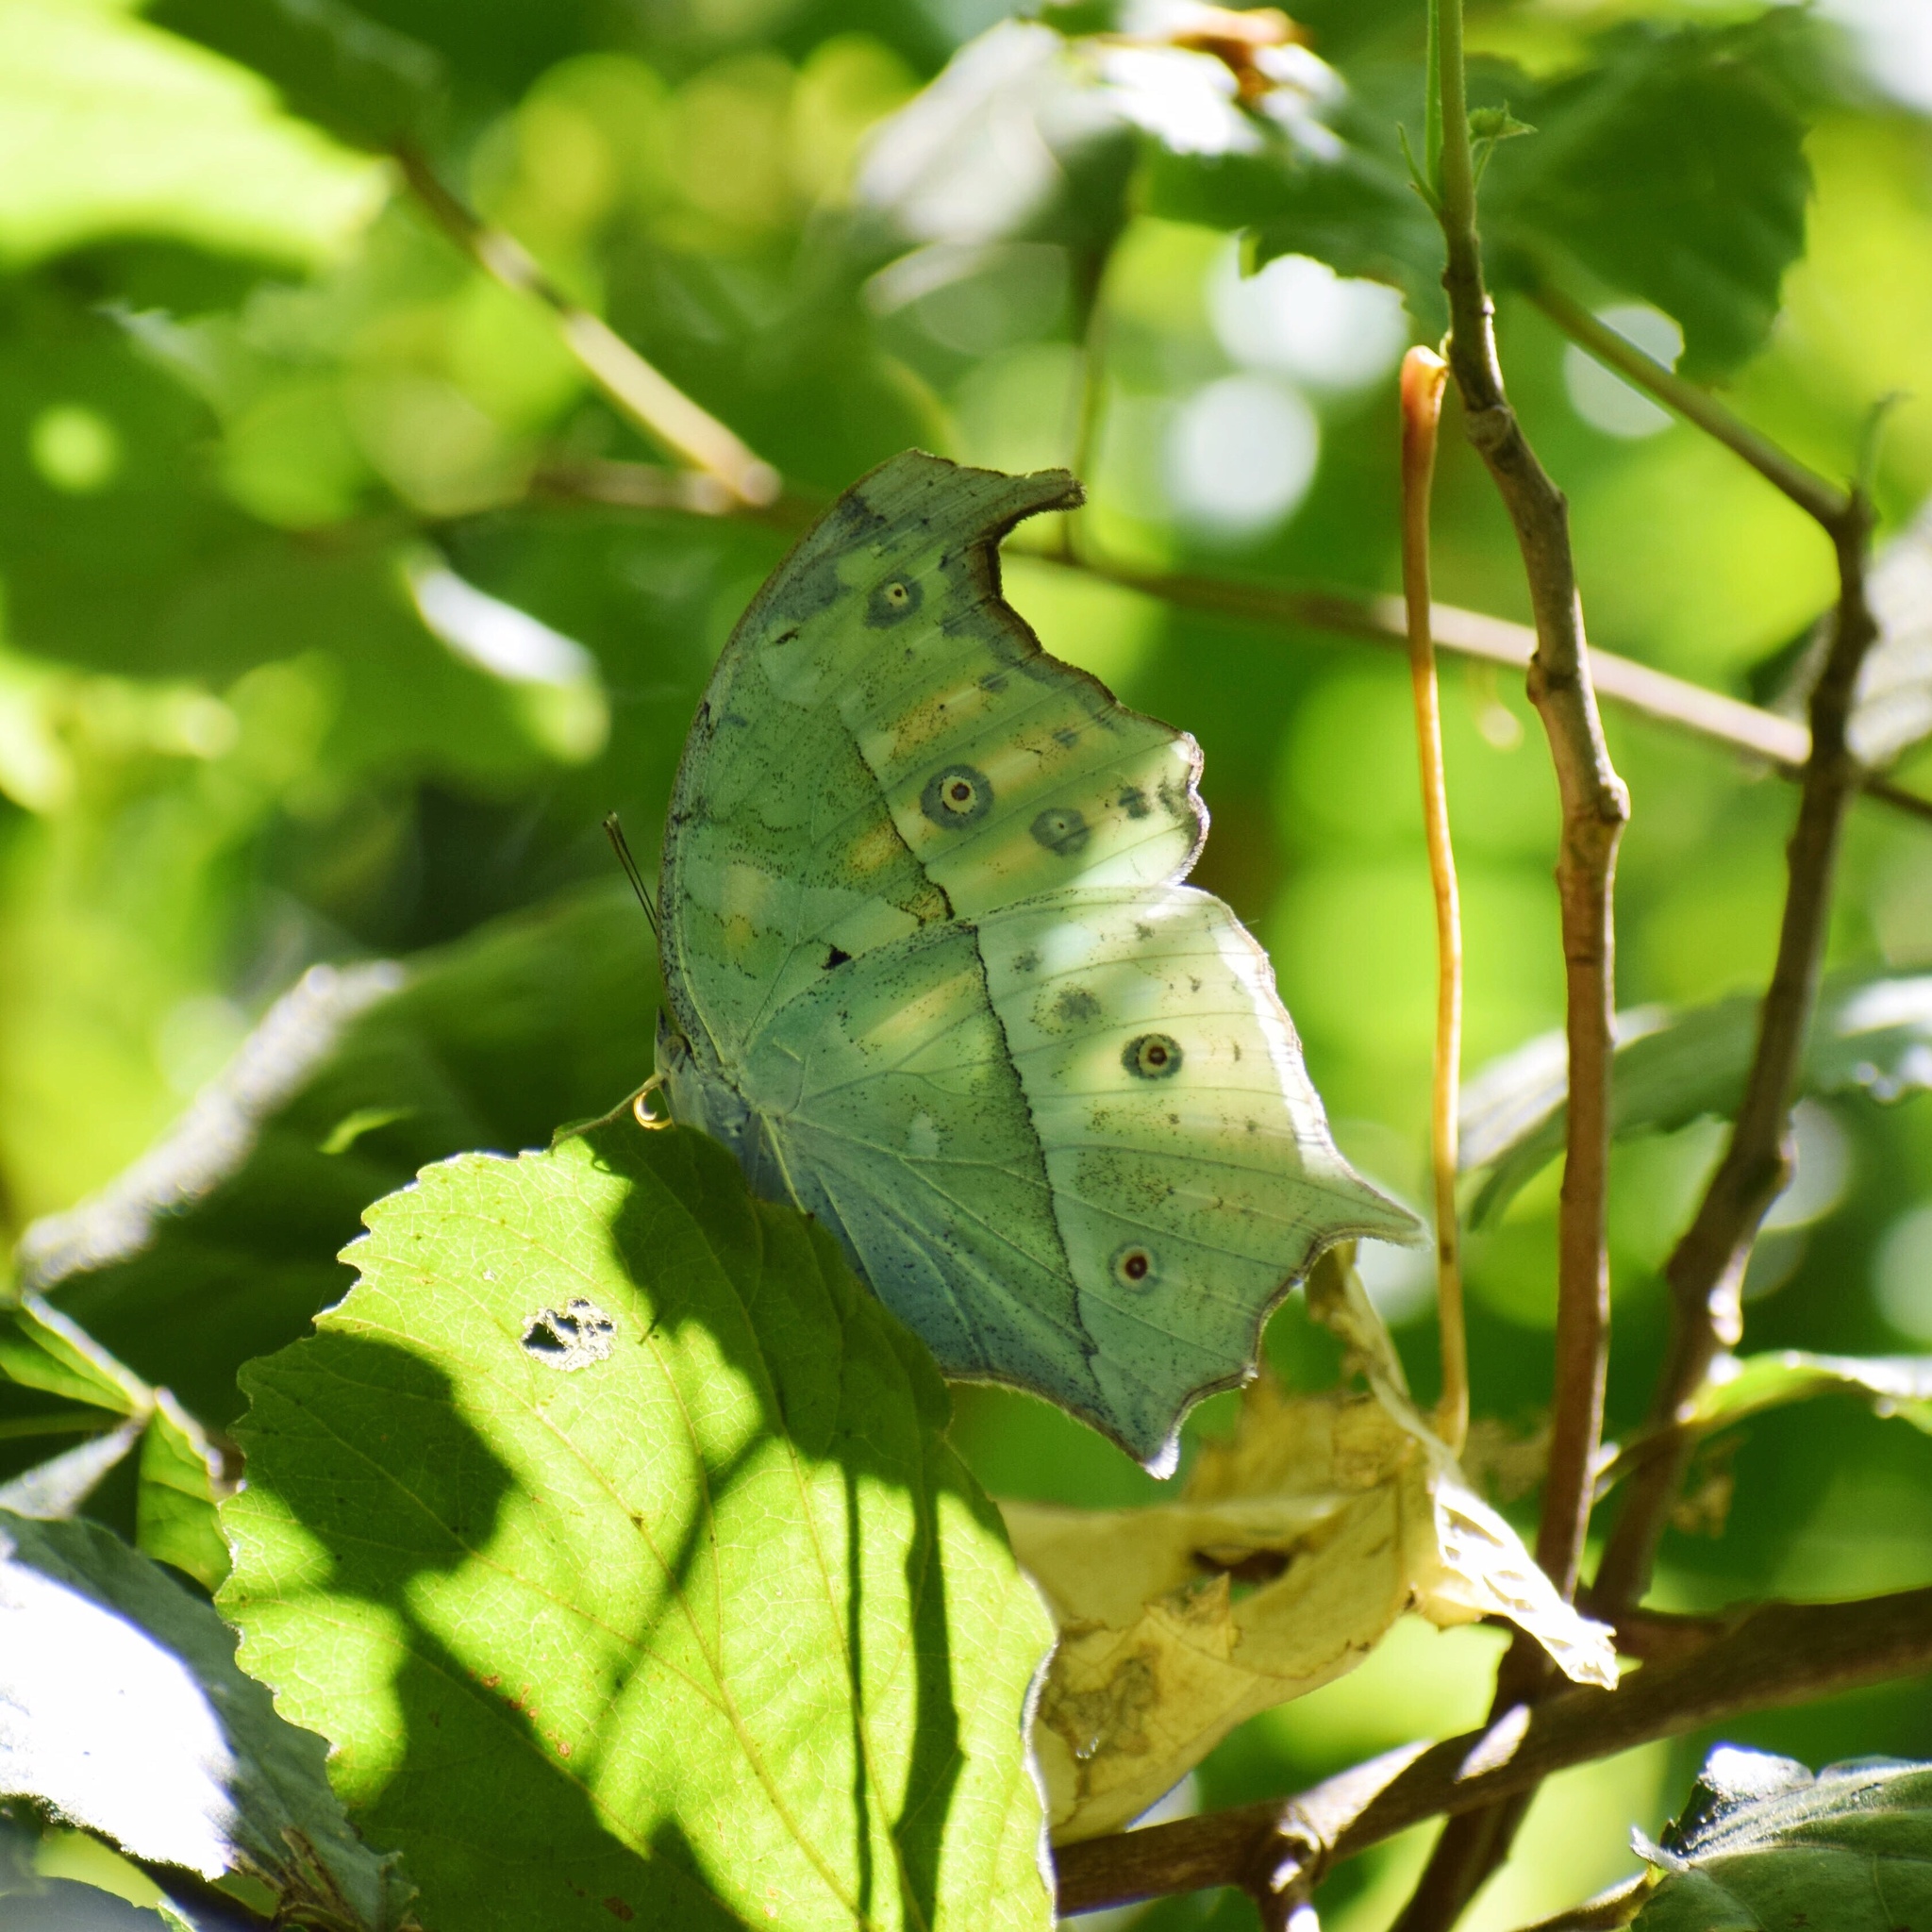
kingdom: Animalia
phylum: Arthropoda
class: Insecta
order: Lepidoptera
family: Nymphalidae
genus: Salamis
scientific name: Salamis Protogoniomorpha parhassus
